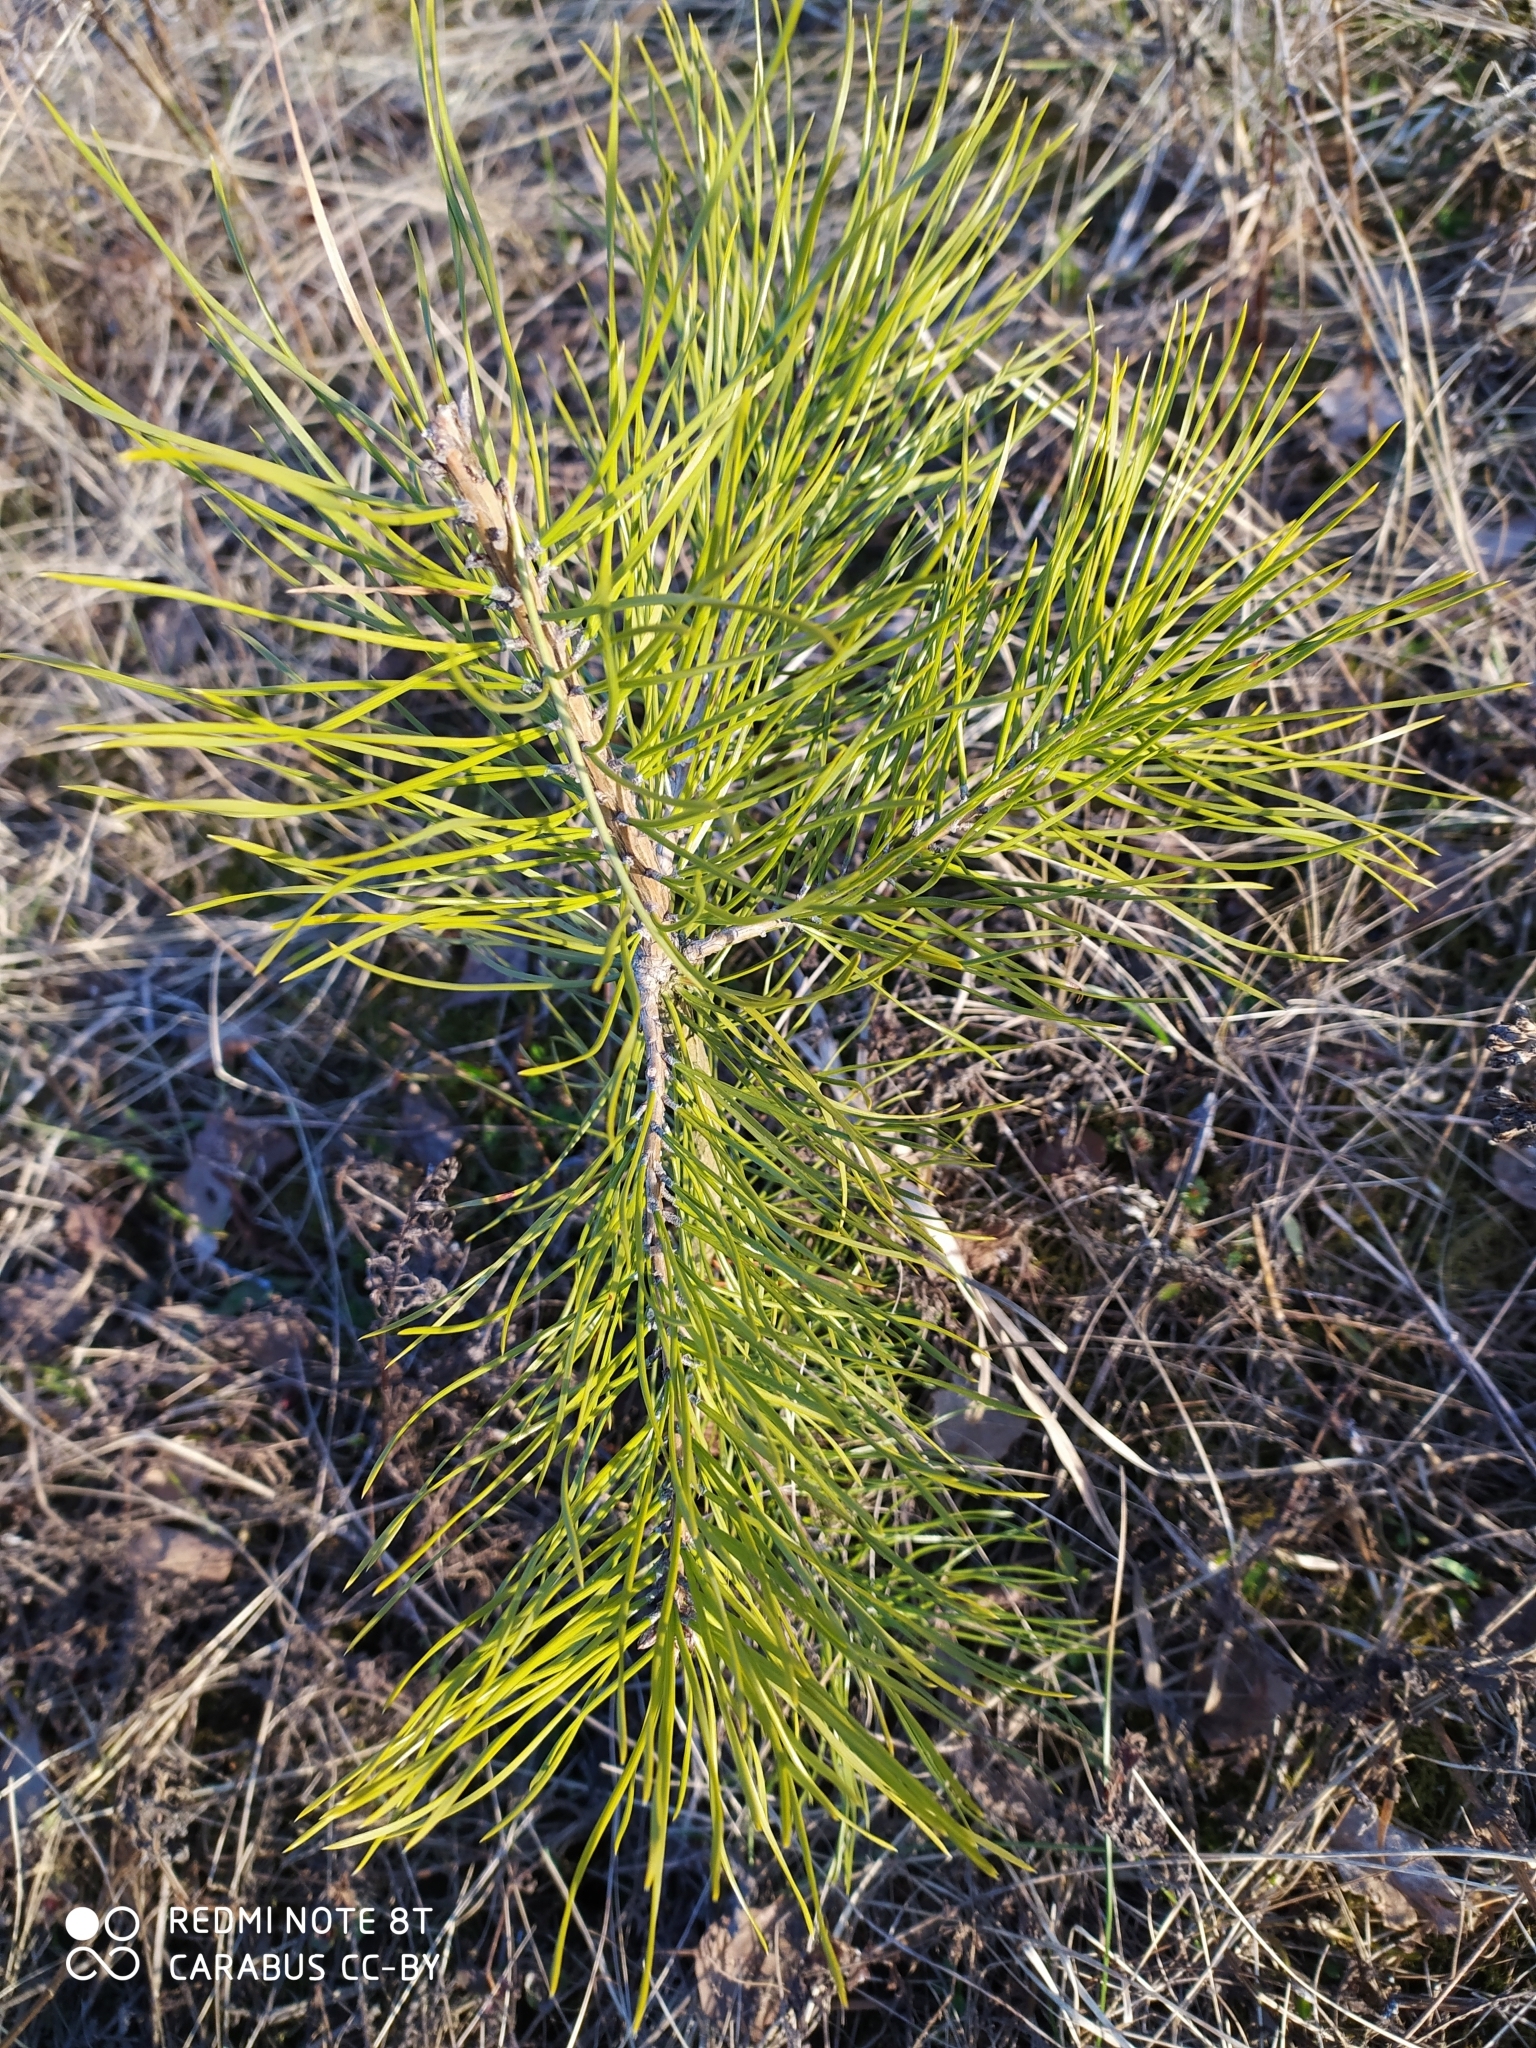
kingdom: Plantae
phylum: Tracheophyta
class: Pinopsida
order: Pinales
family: Pinaceae
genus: Pinus
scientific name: Pinus sylvestris
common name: Scots pine
